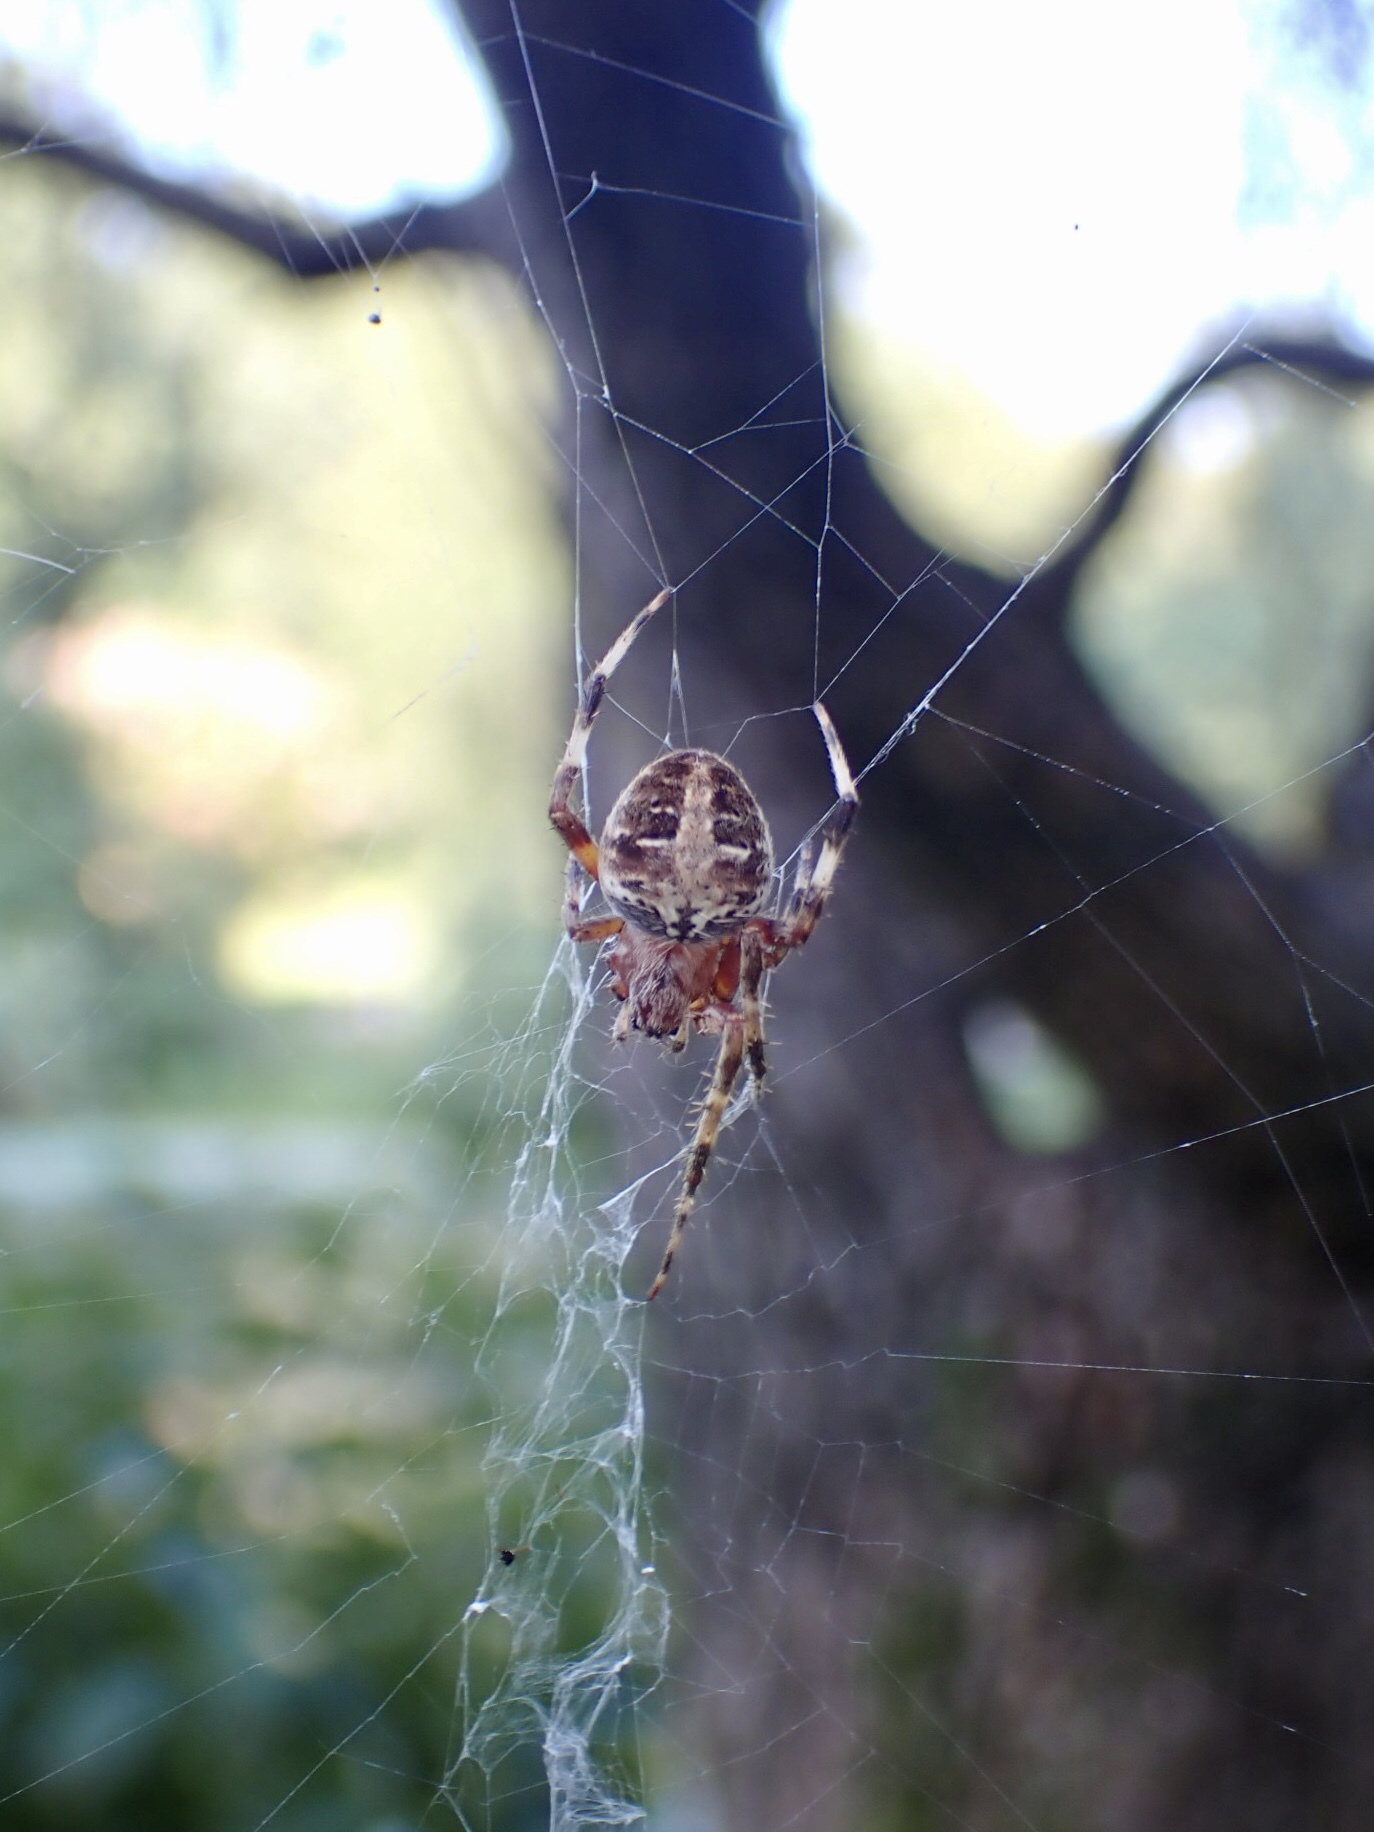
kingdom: Animalia
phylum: Arthropoda
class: Arachnida
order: Araneae
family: Araneidae
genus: Neoscona
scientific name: Neoscona domiciliorum
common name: Red-femured spotted orbweaver
